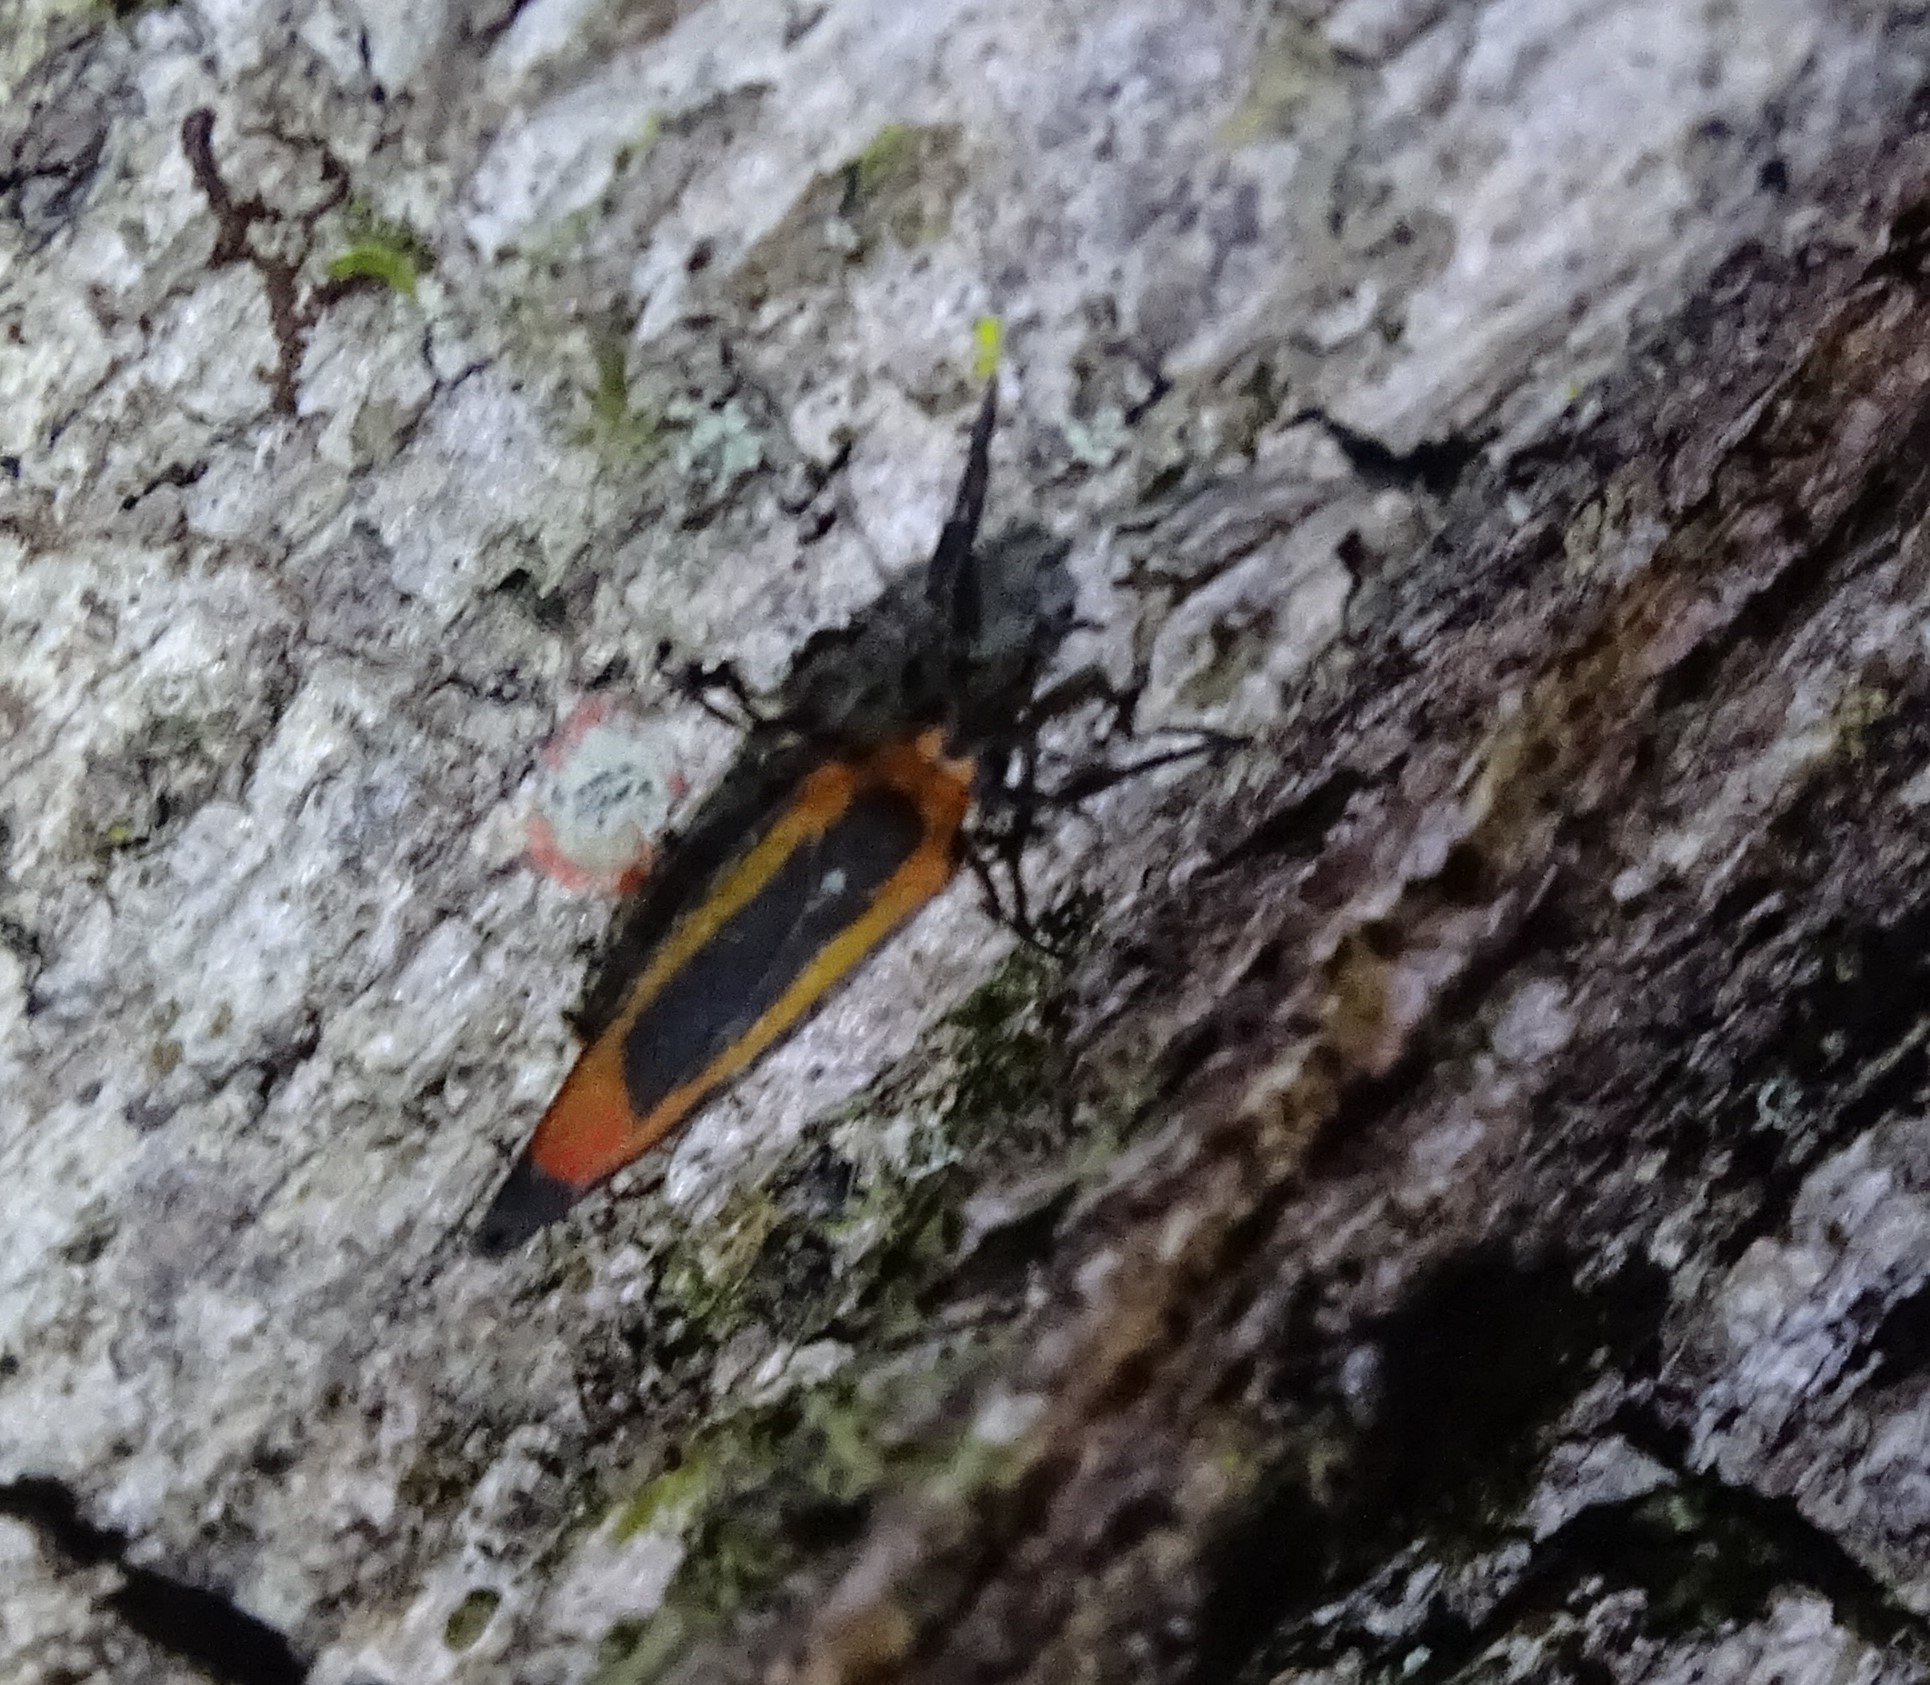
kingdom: Animalia
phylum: Arthropoda
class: Insecta
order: Lepidoptera
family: Erebidae
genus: Cisthene
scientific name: Cisthene subjecta
